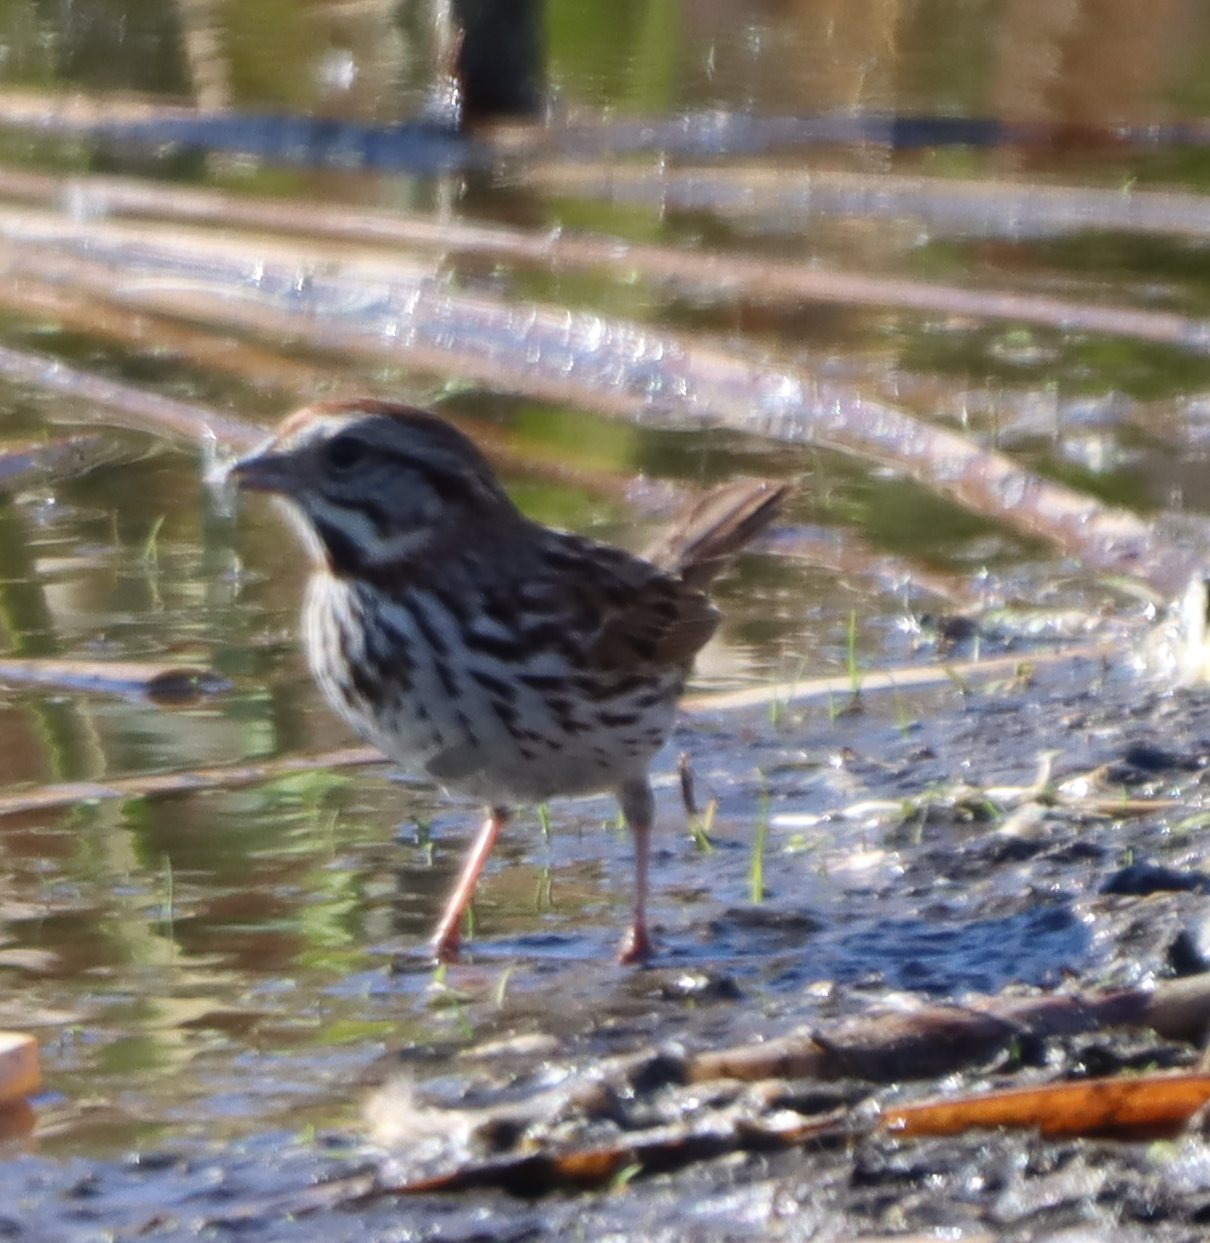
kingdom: Animalia
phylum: Chordata
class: Aves
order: Passeriformes
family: Passerellidae
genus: Melospiza
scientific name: Melospiza melodia
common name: Song sparrow
